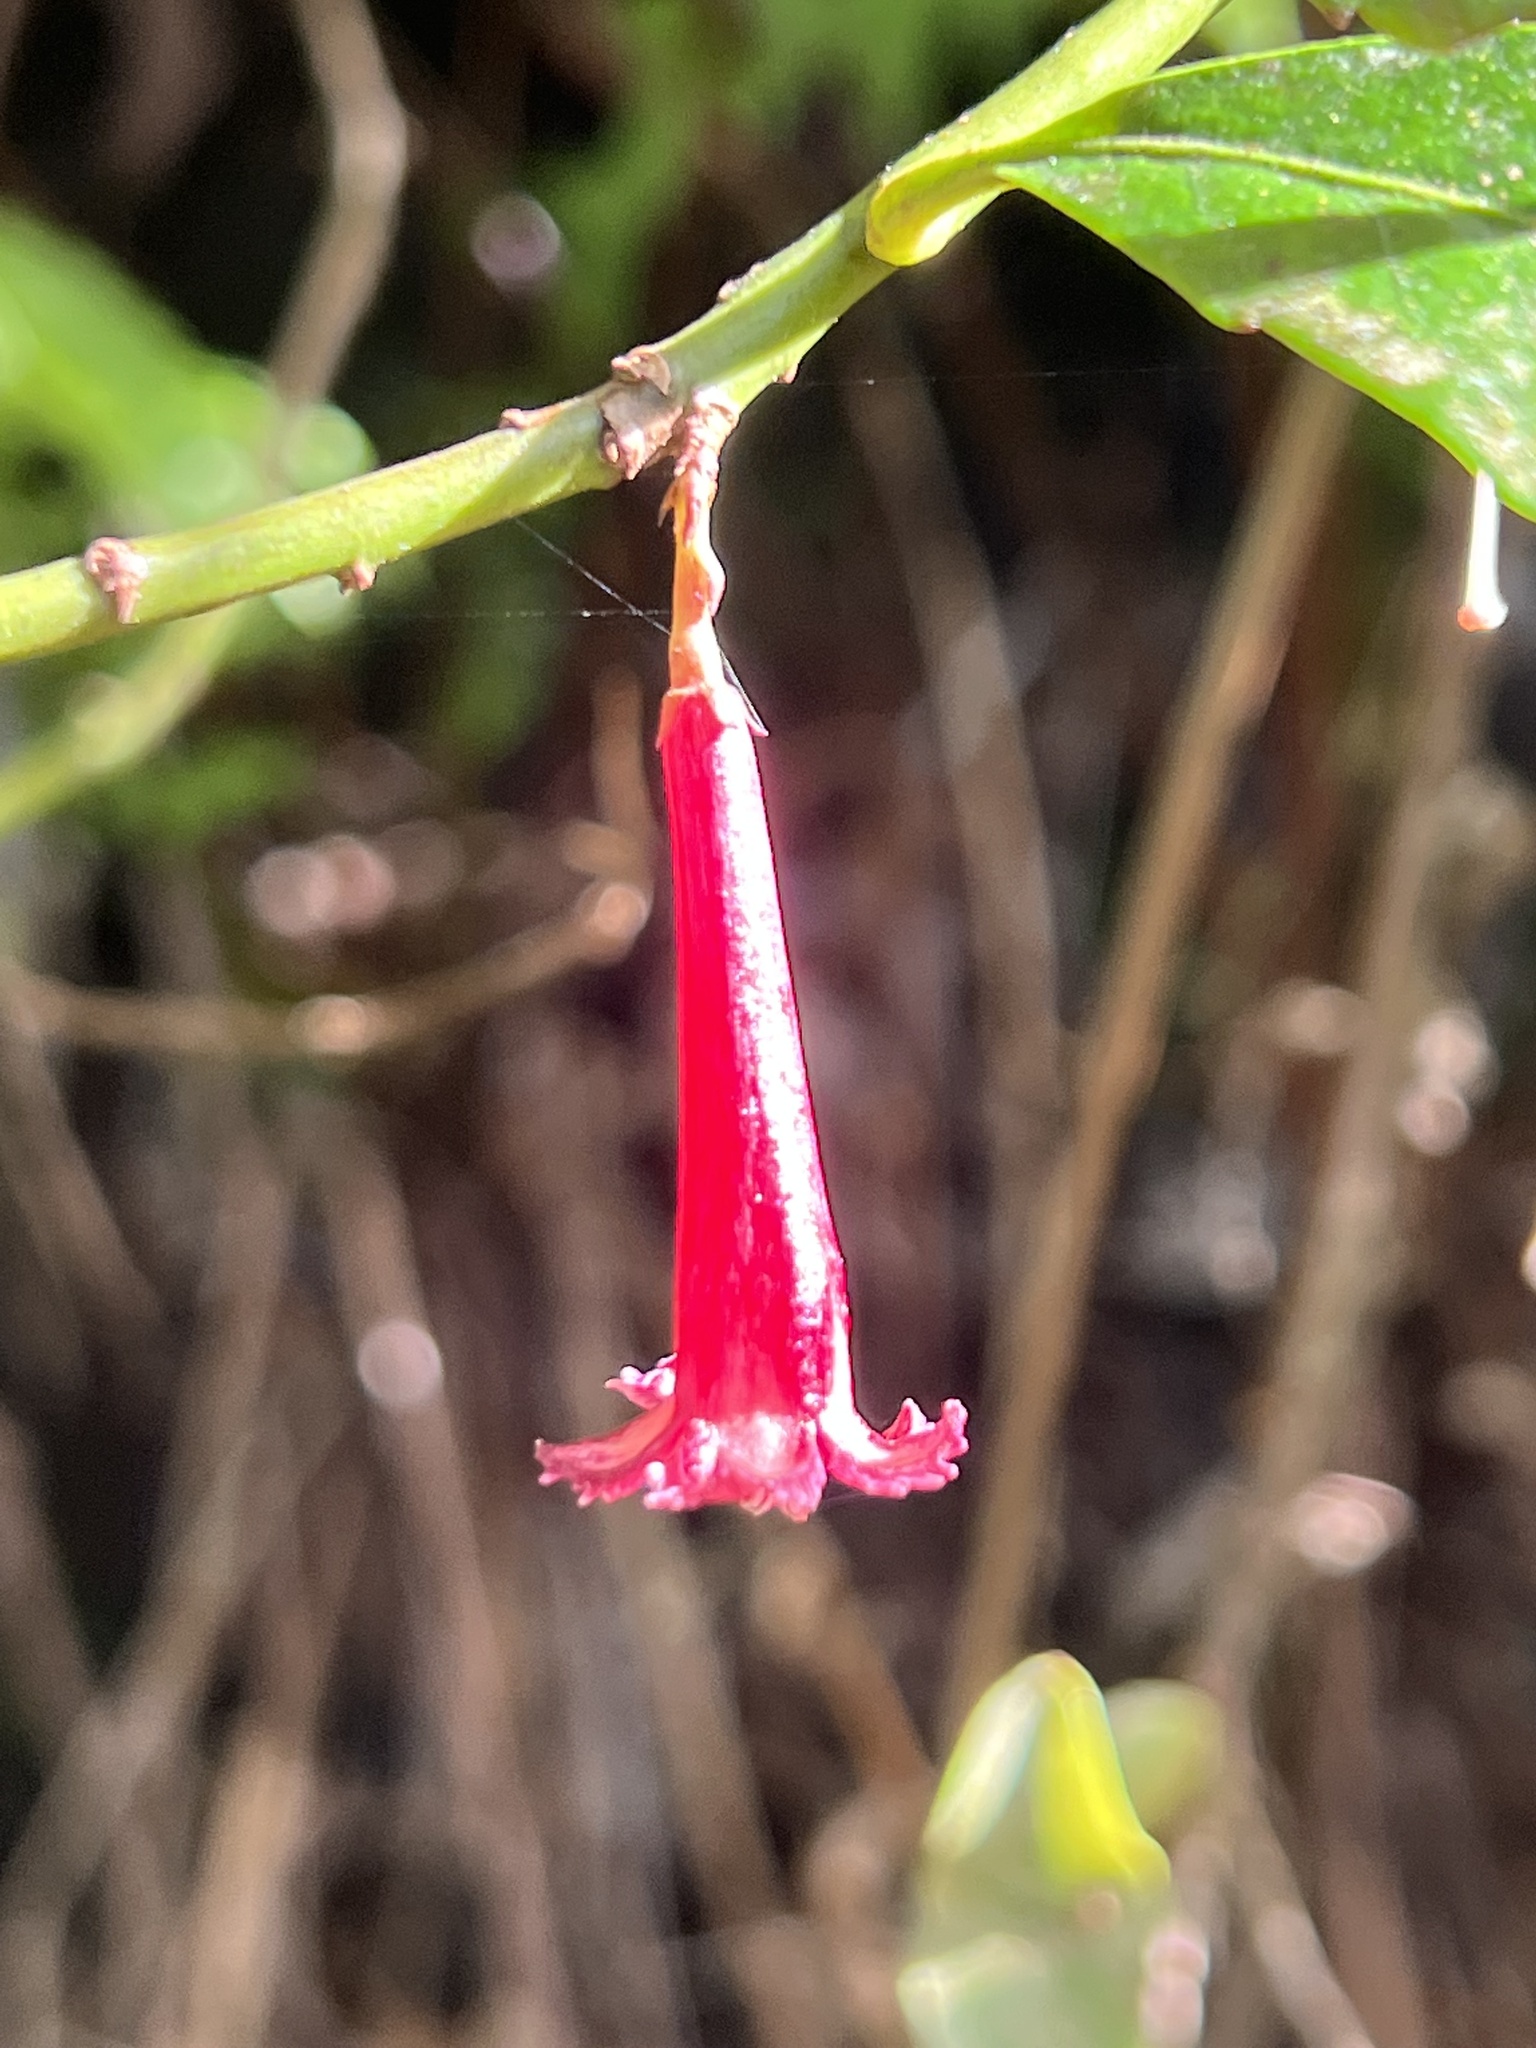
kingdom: Plantae
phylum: Tracheophyta
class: Magnoliopsida
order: Asterales
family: Alseuosmiaceae
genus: Alseuosmia
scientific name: Alseuosmia macrophylla
